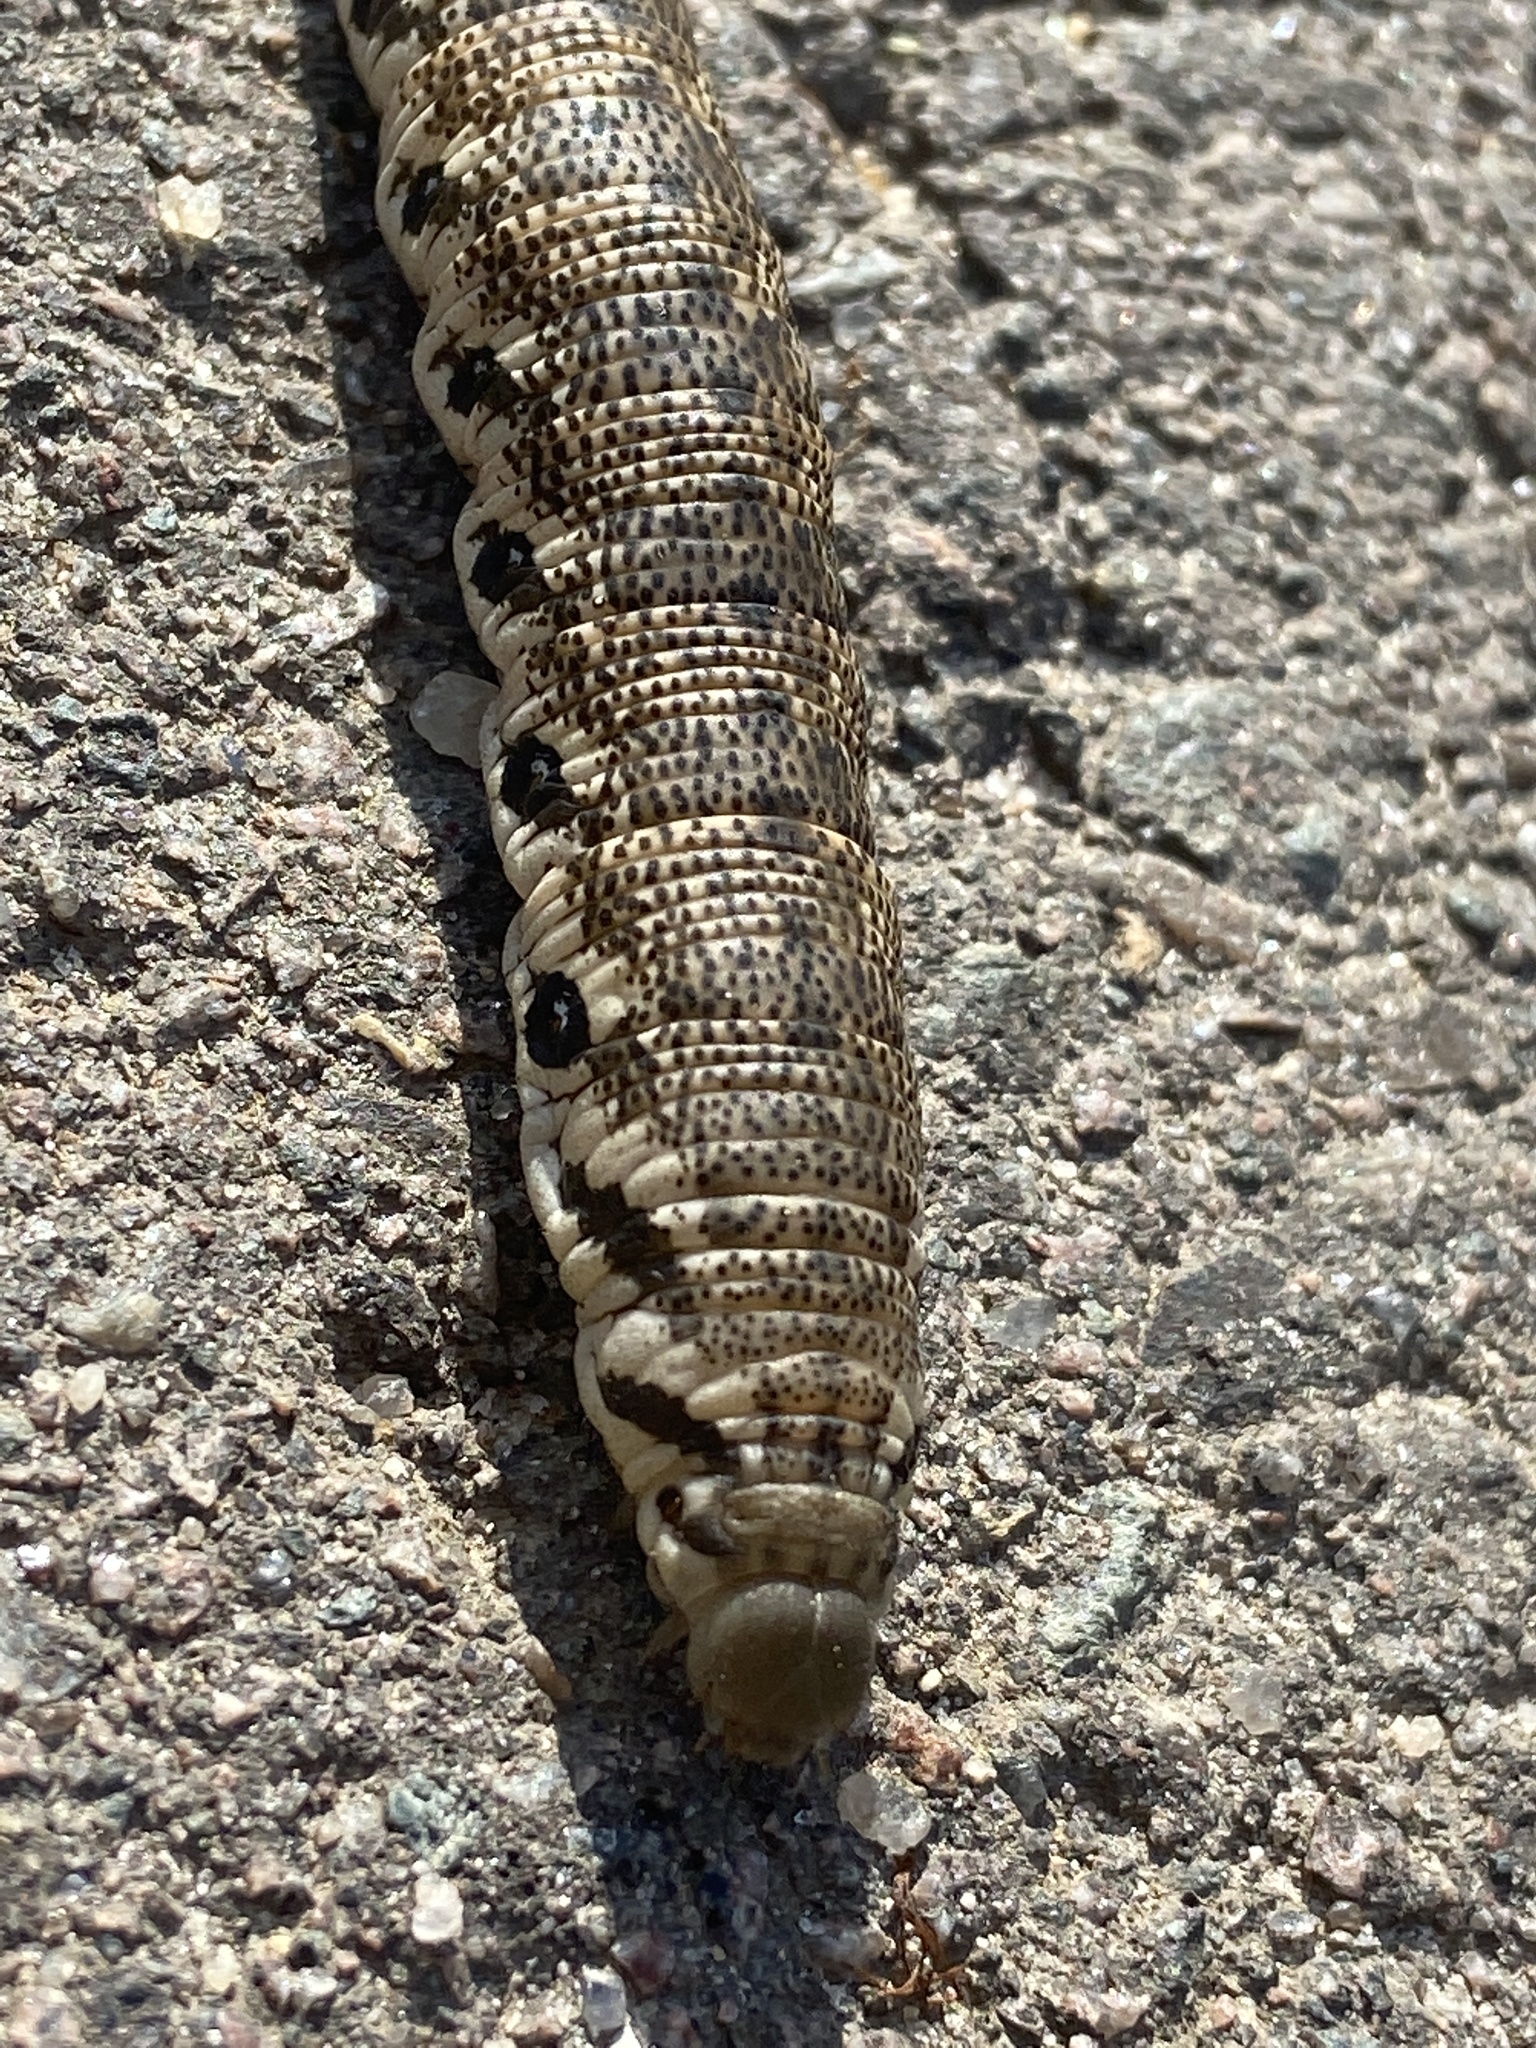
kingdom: Animalia
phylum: Arthropoda
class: Insecta
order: Lepidoptera
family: Sphingidae
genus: Proserpinus
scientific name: Proserpinus proserpina
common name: Willowherb hawkmoth
